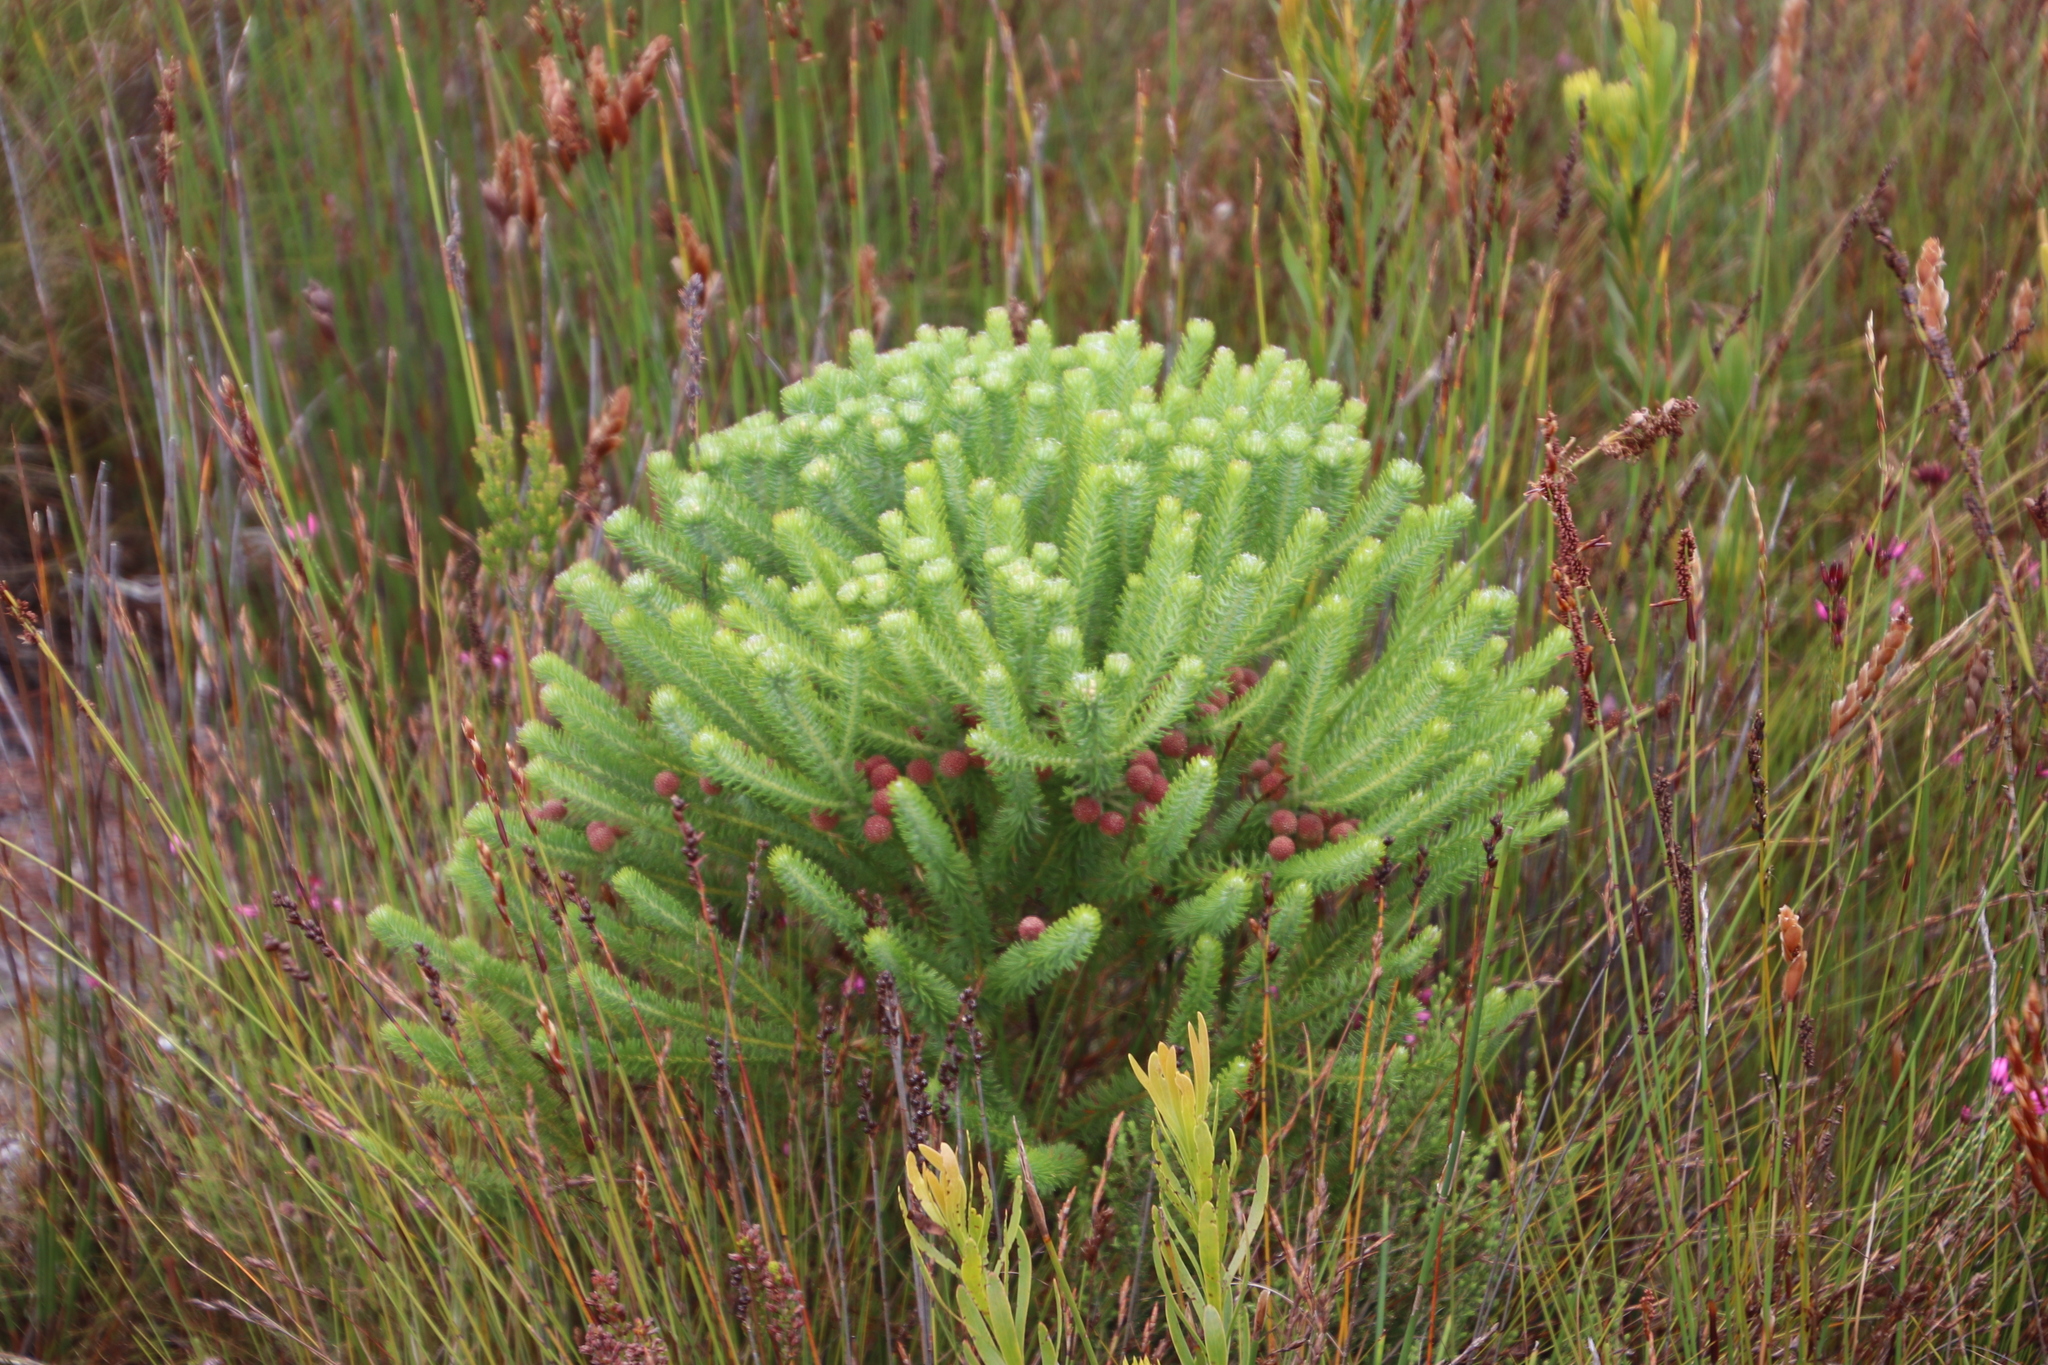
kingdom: Plantae
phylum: Tracheophyta
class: Magnoliopsida
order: Bruniales
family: Bruniaceae
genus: Berzelia
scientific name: Berzelia squarrosa
